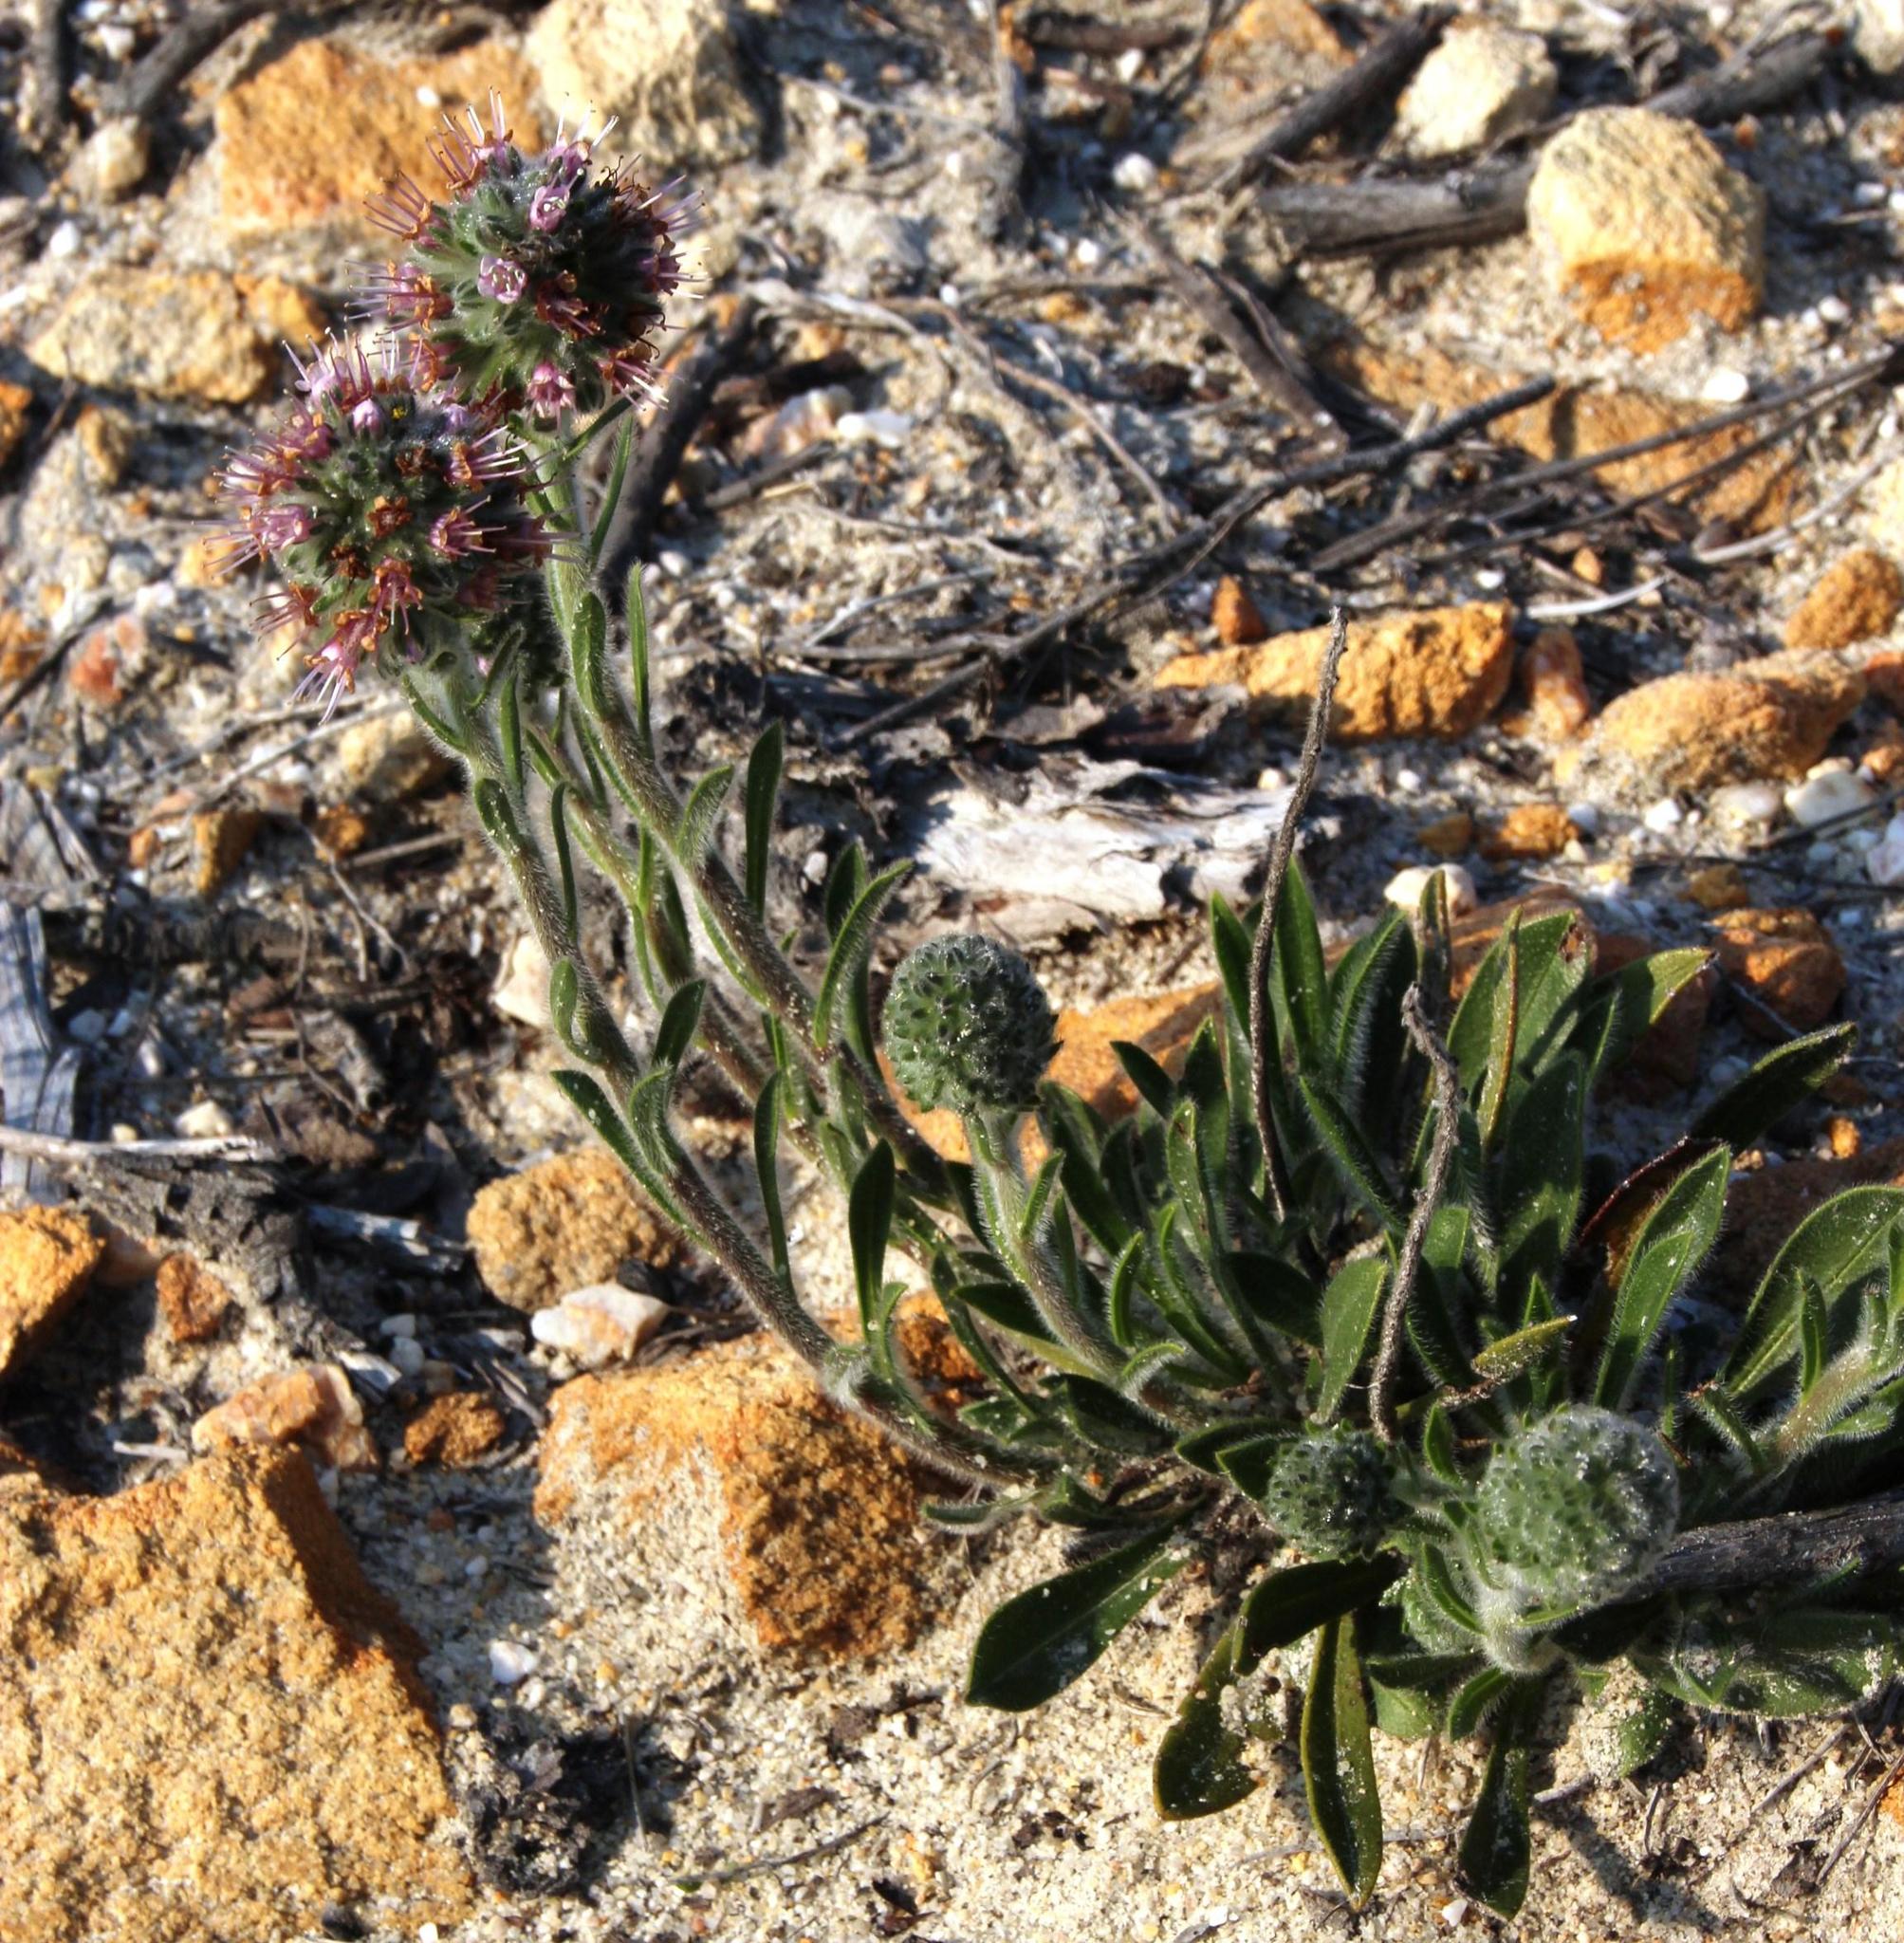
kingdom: Plantae
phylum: Tracheophyta
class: Magnoliopsida
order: Boraginales
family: Boraginaceae
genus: Lobostemon
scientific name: Lobostemon ecklonianus
